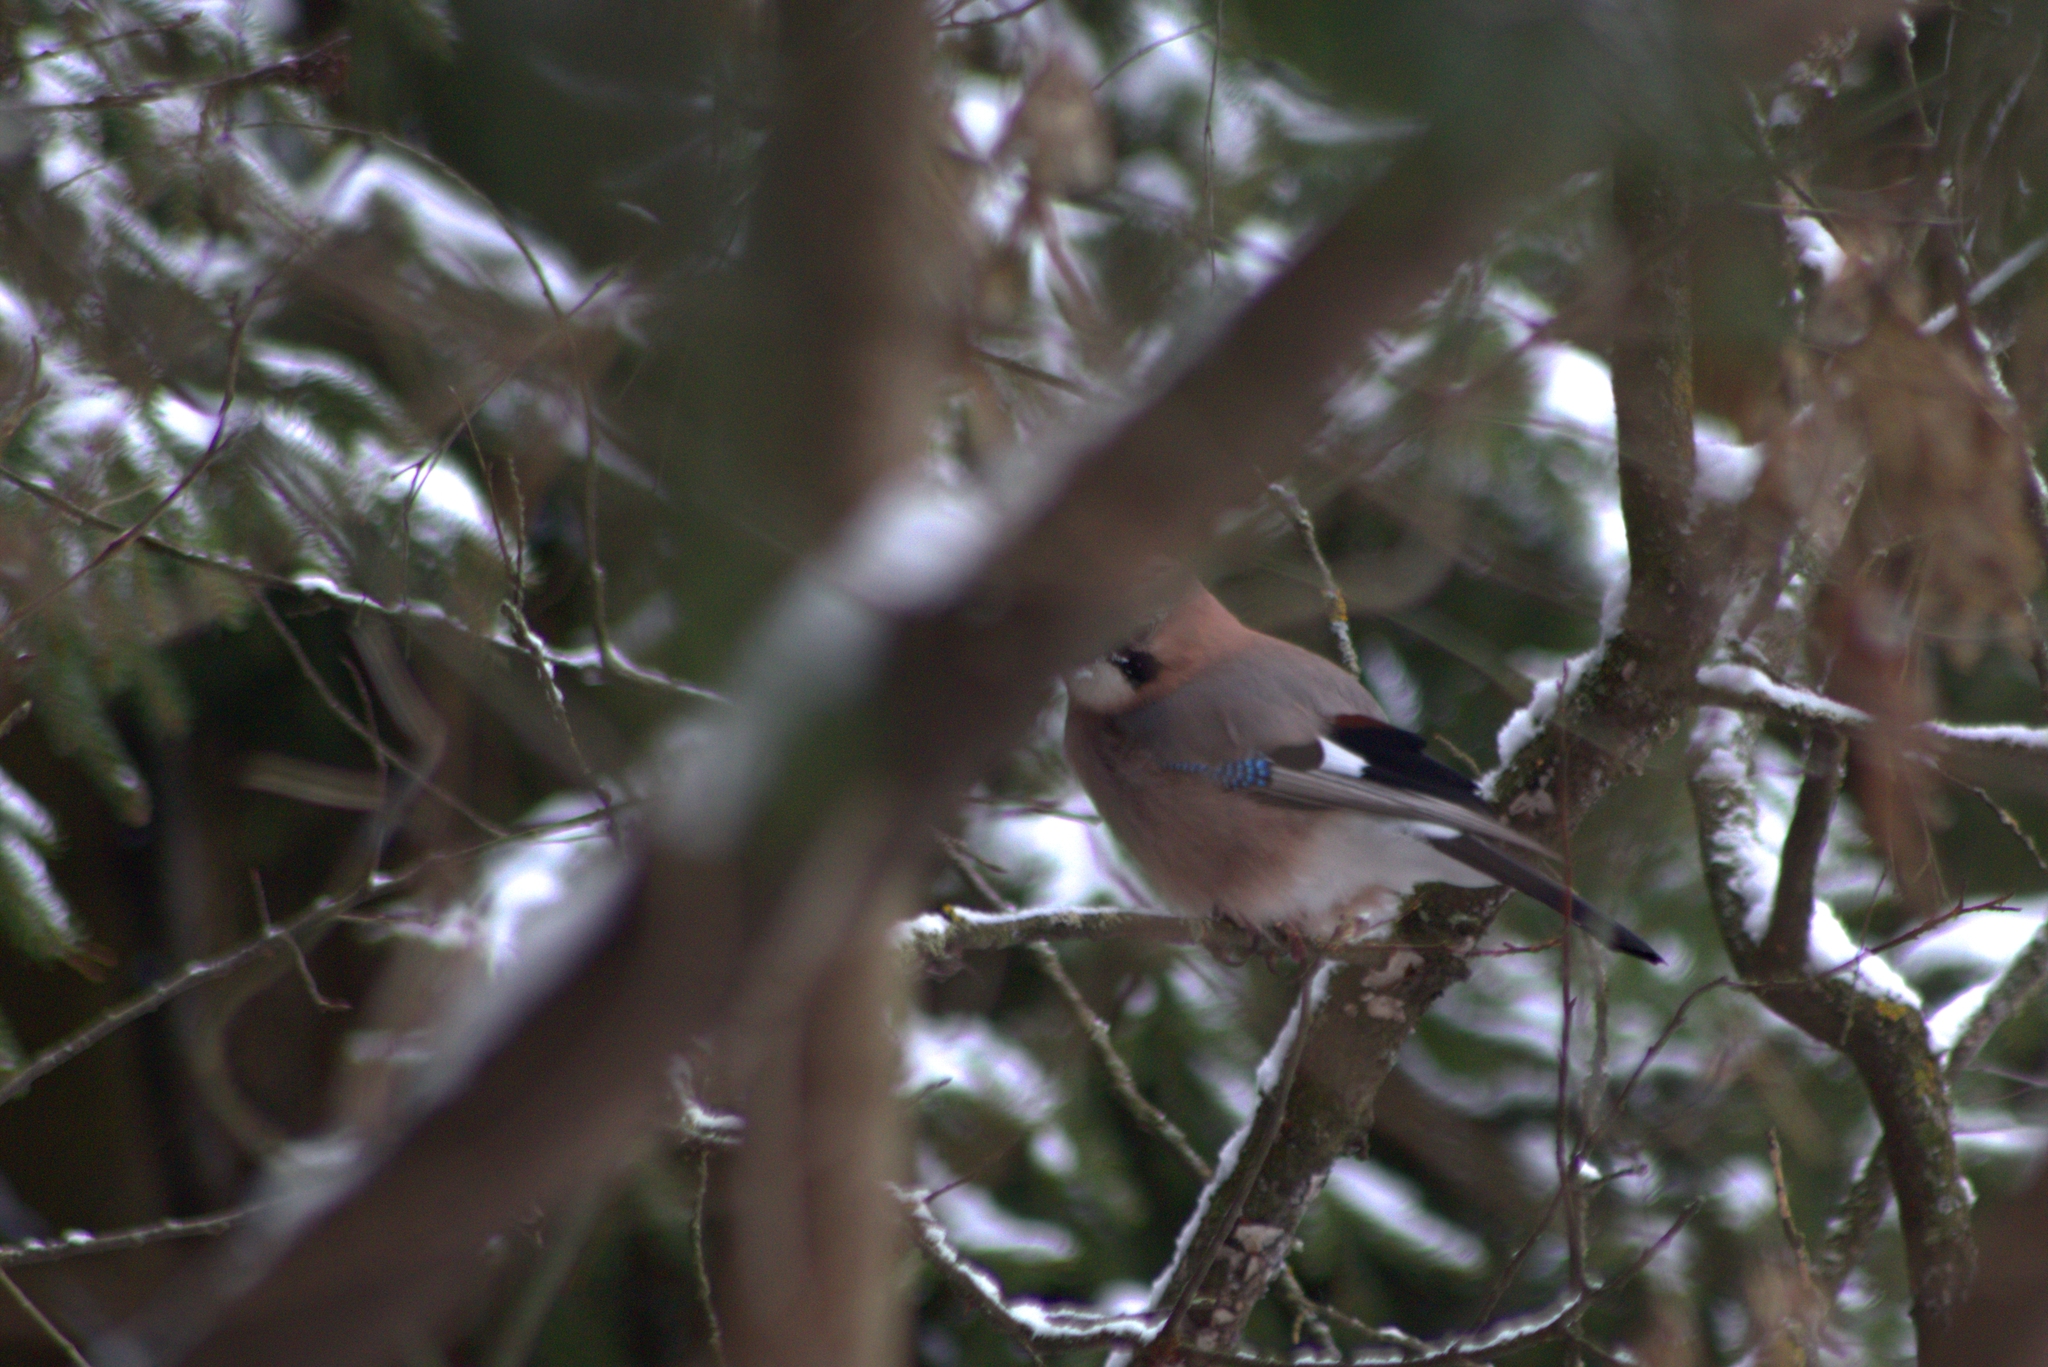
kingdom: Animalia
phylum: Chordata
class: Aves
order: Passeriformes
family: Corvidae
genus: Garrulus
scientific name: Garrulus glandarius
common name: Eurasian jay
